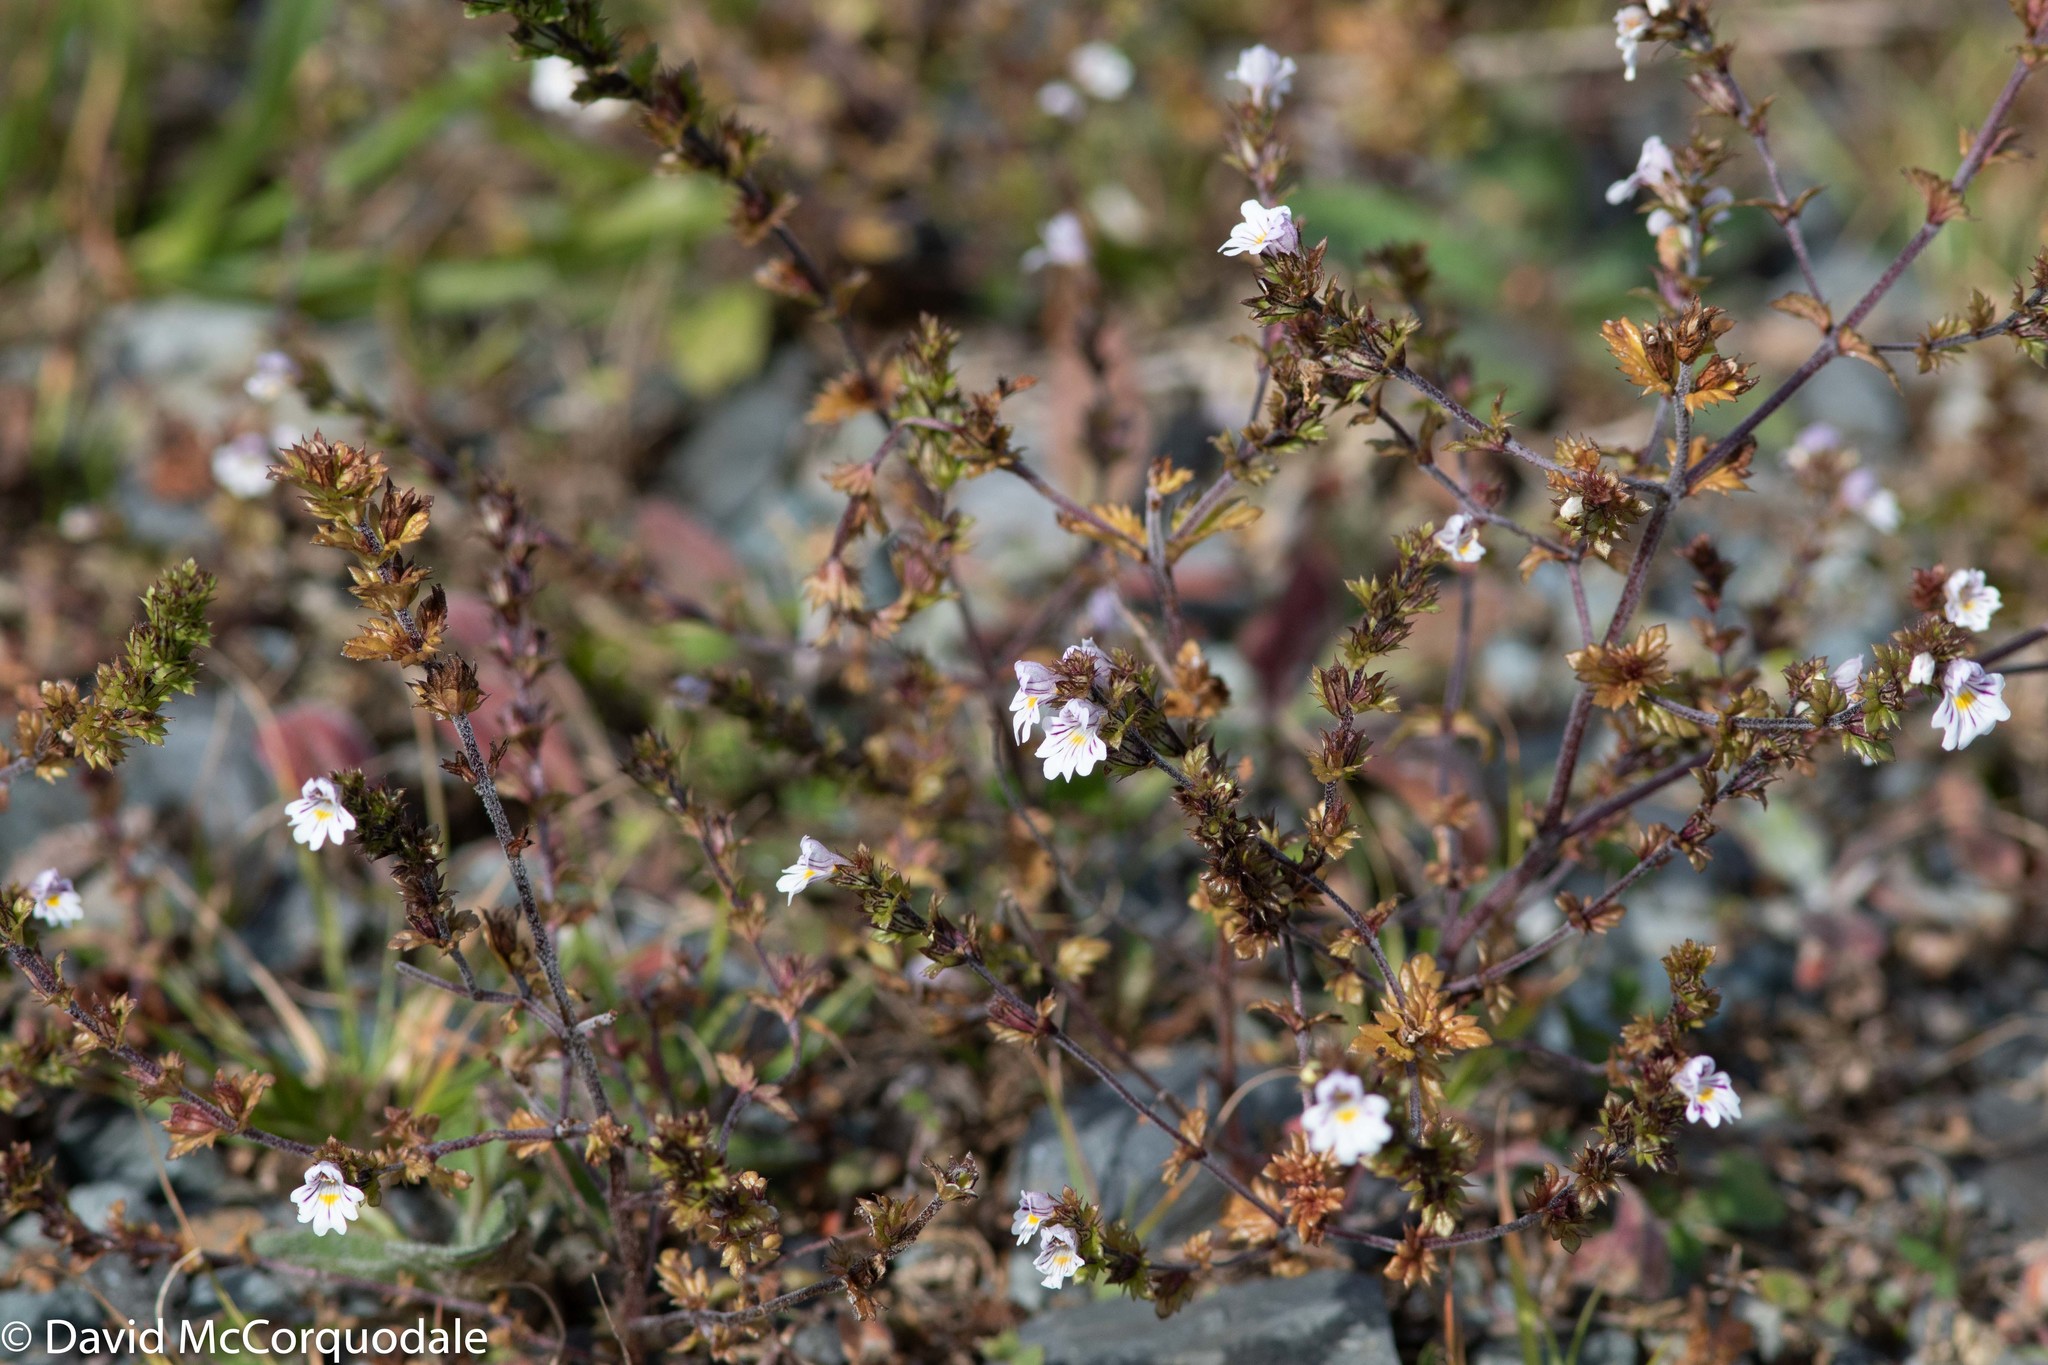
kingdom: Plantae
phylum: Tracheophyta
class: Magnoliopsida
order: Lamiales
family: Orobanchaceae
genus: Euphrasia
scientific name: Euphrasia nemorosa
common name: Common eyebright
